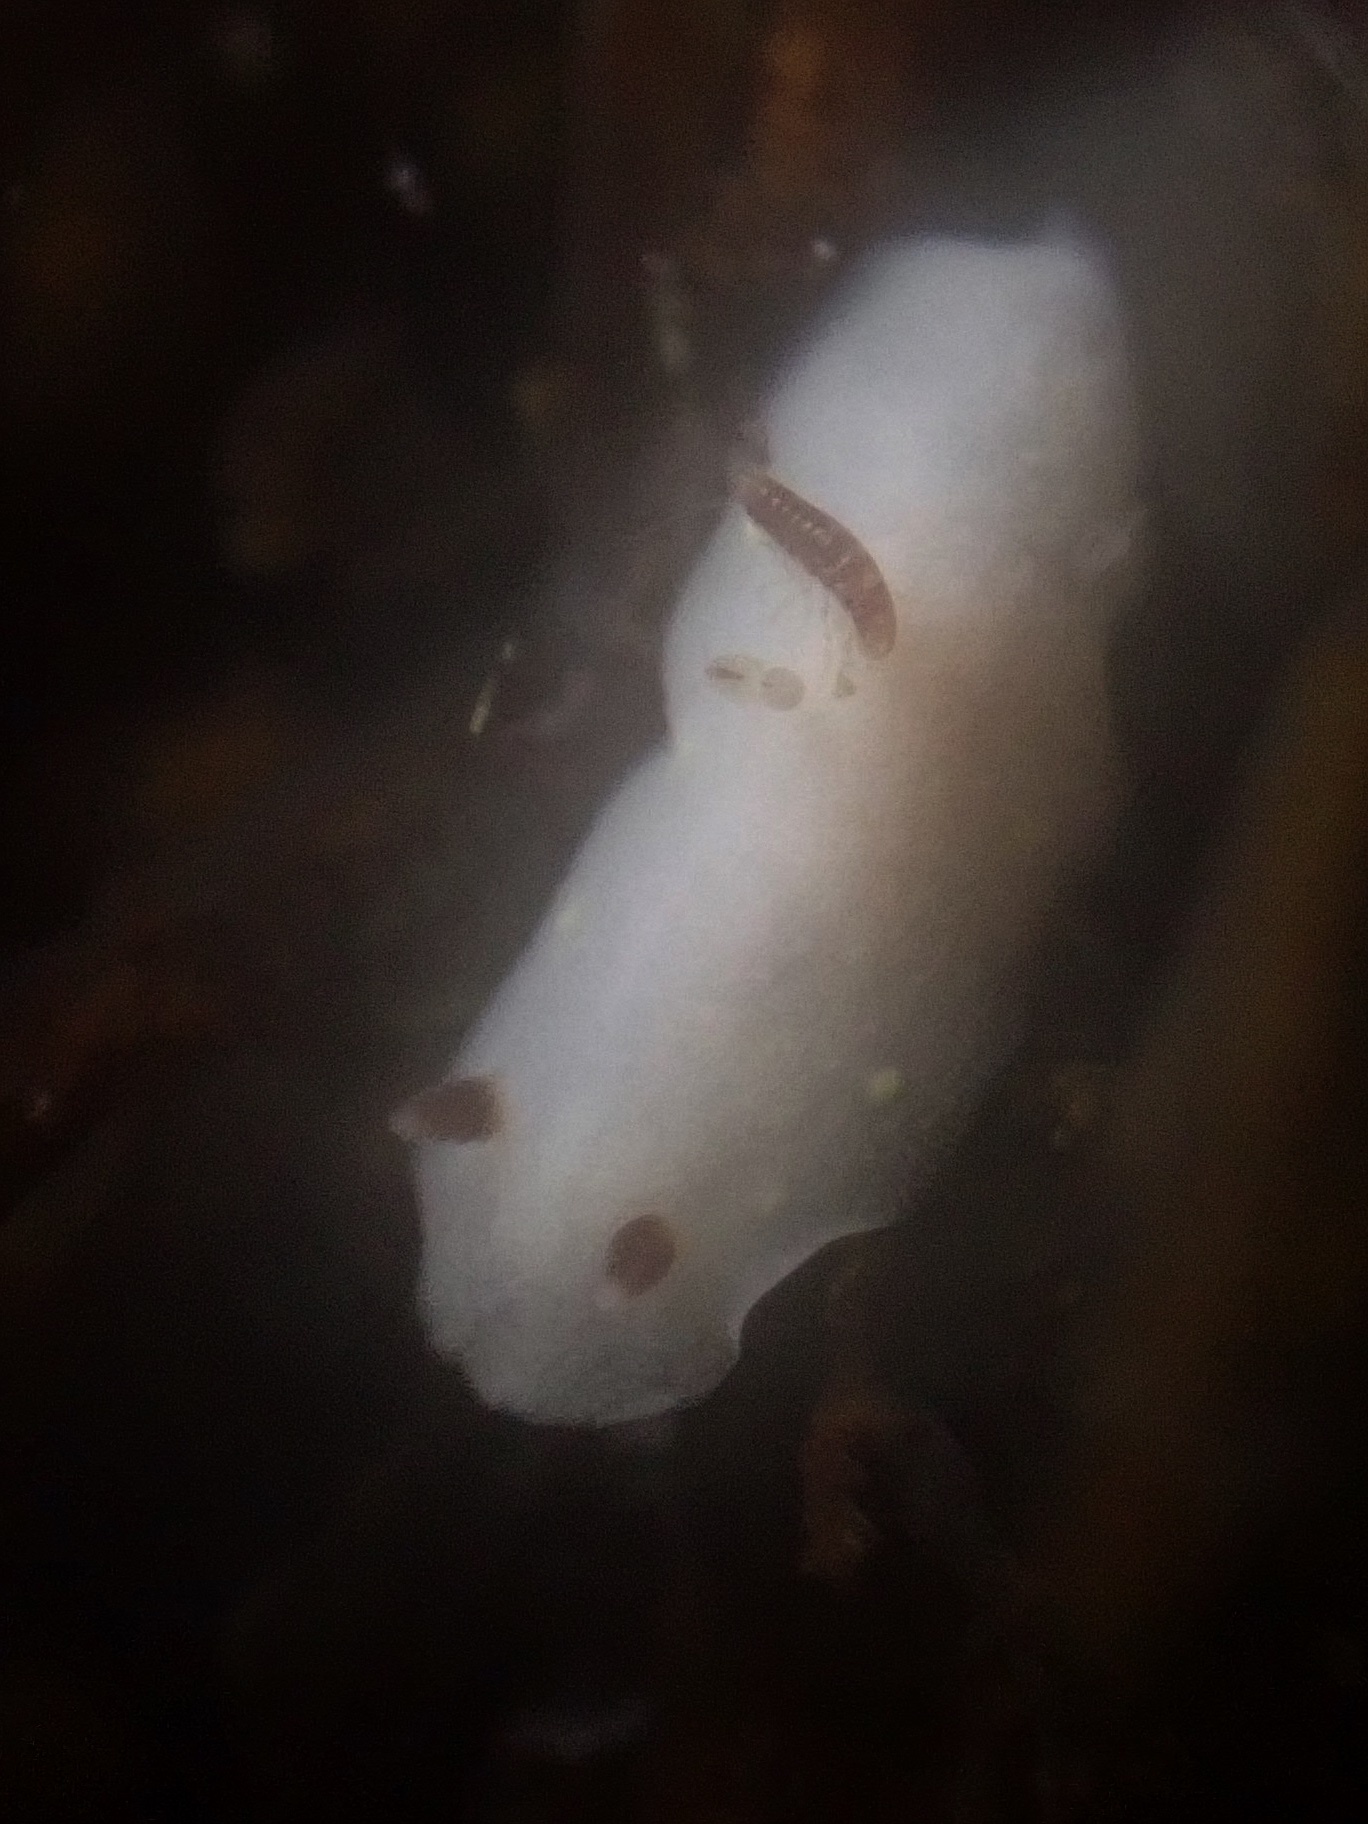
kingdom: Animalia
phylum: Mollusca
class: Gastropoda
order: Nudibranchia
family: Cadlinidae
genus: Cadlina
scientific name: Cadlina flavomaculata
